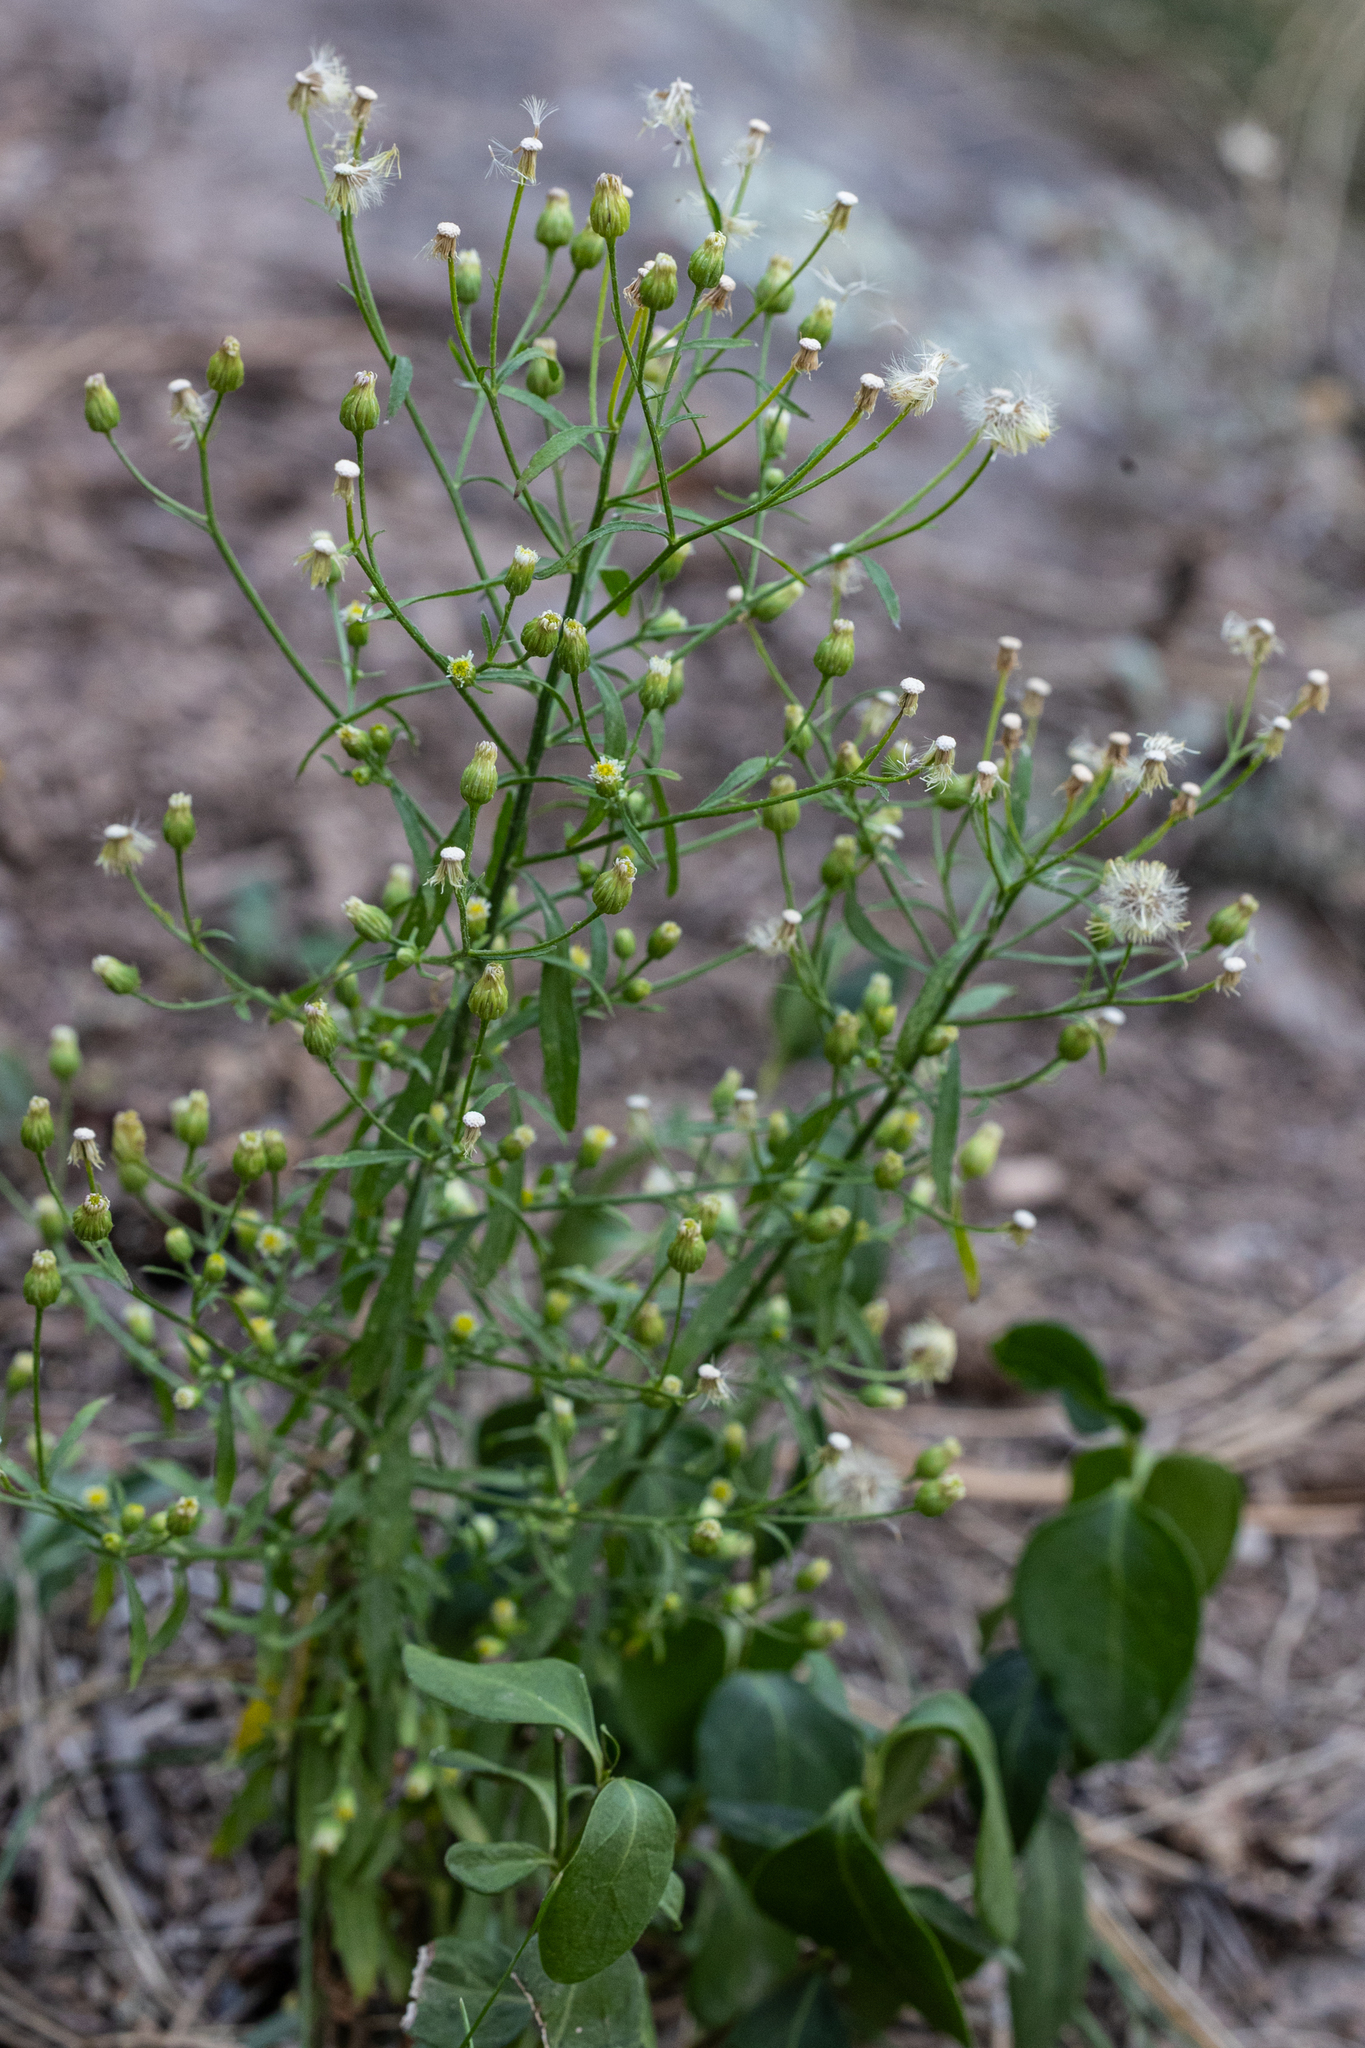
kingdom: Plantae
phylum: Tracheophyta
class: Magnoliopsida
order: Asterales
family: Asteraceae
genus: Erigeron
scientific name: Erigeron canadensis
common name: Canadian fleabane
